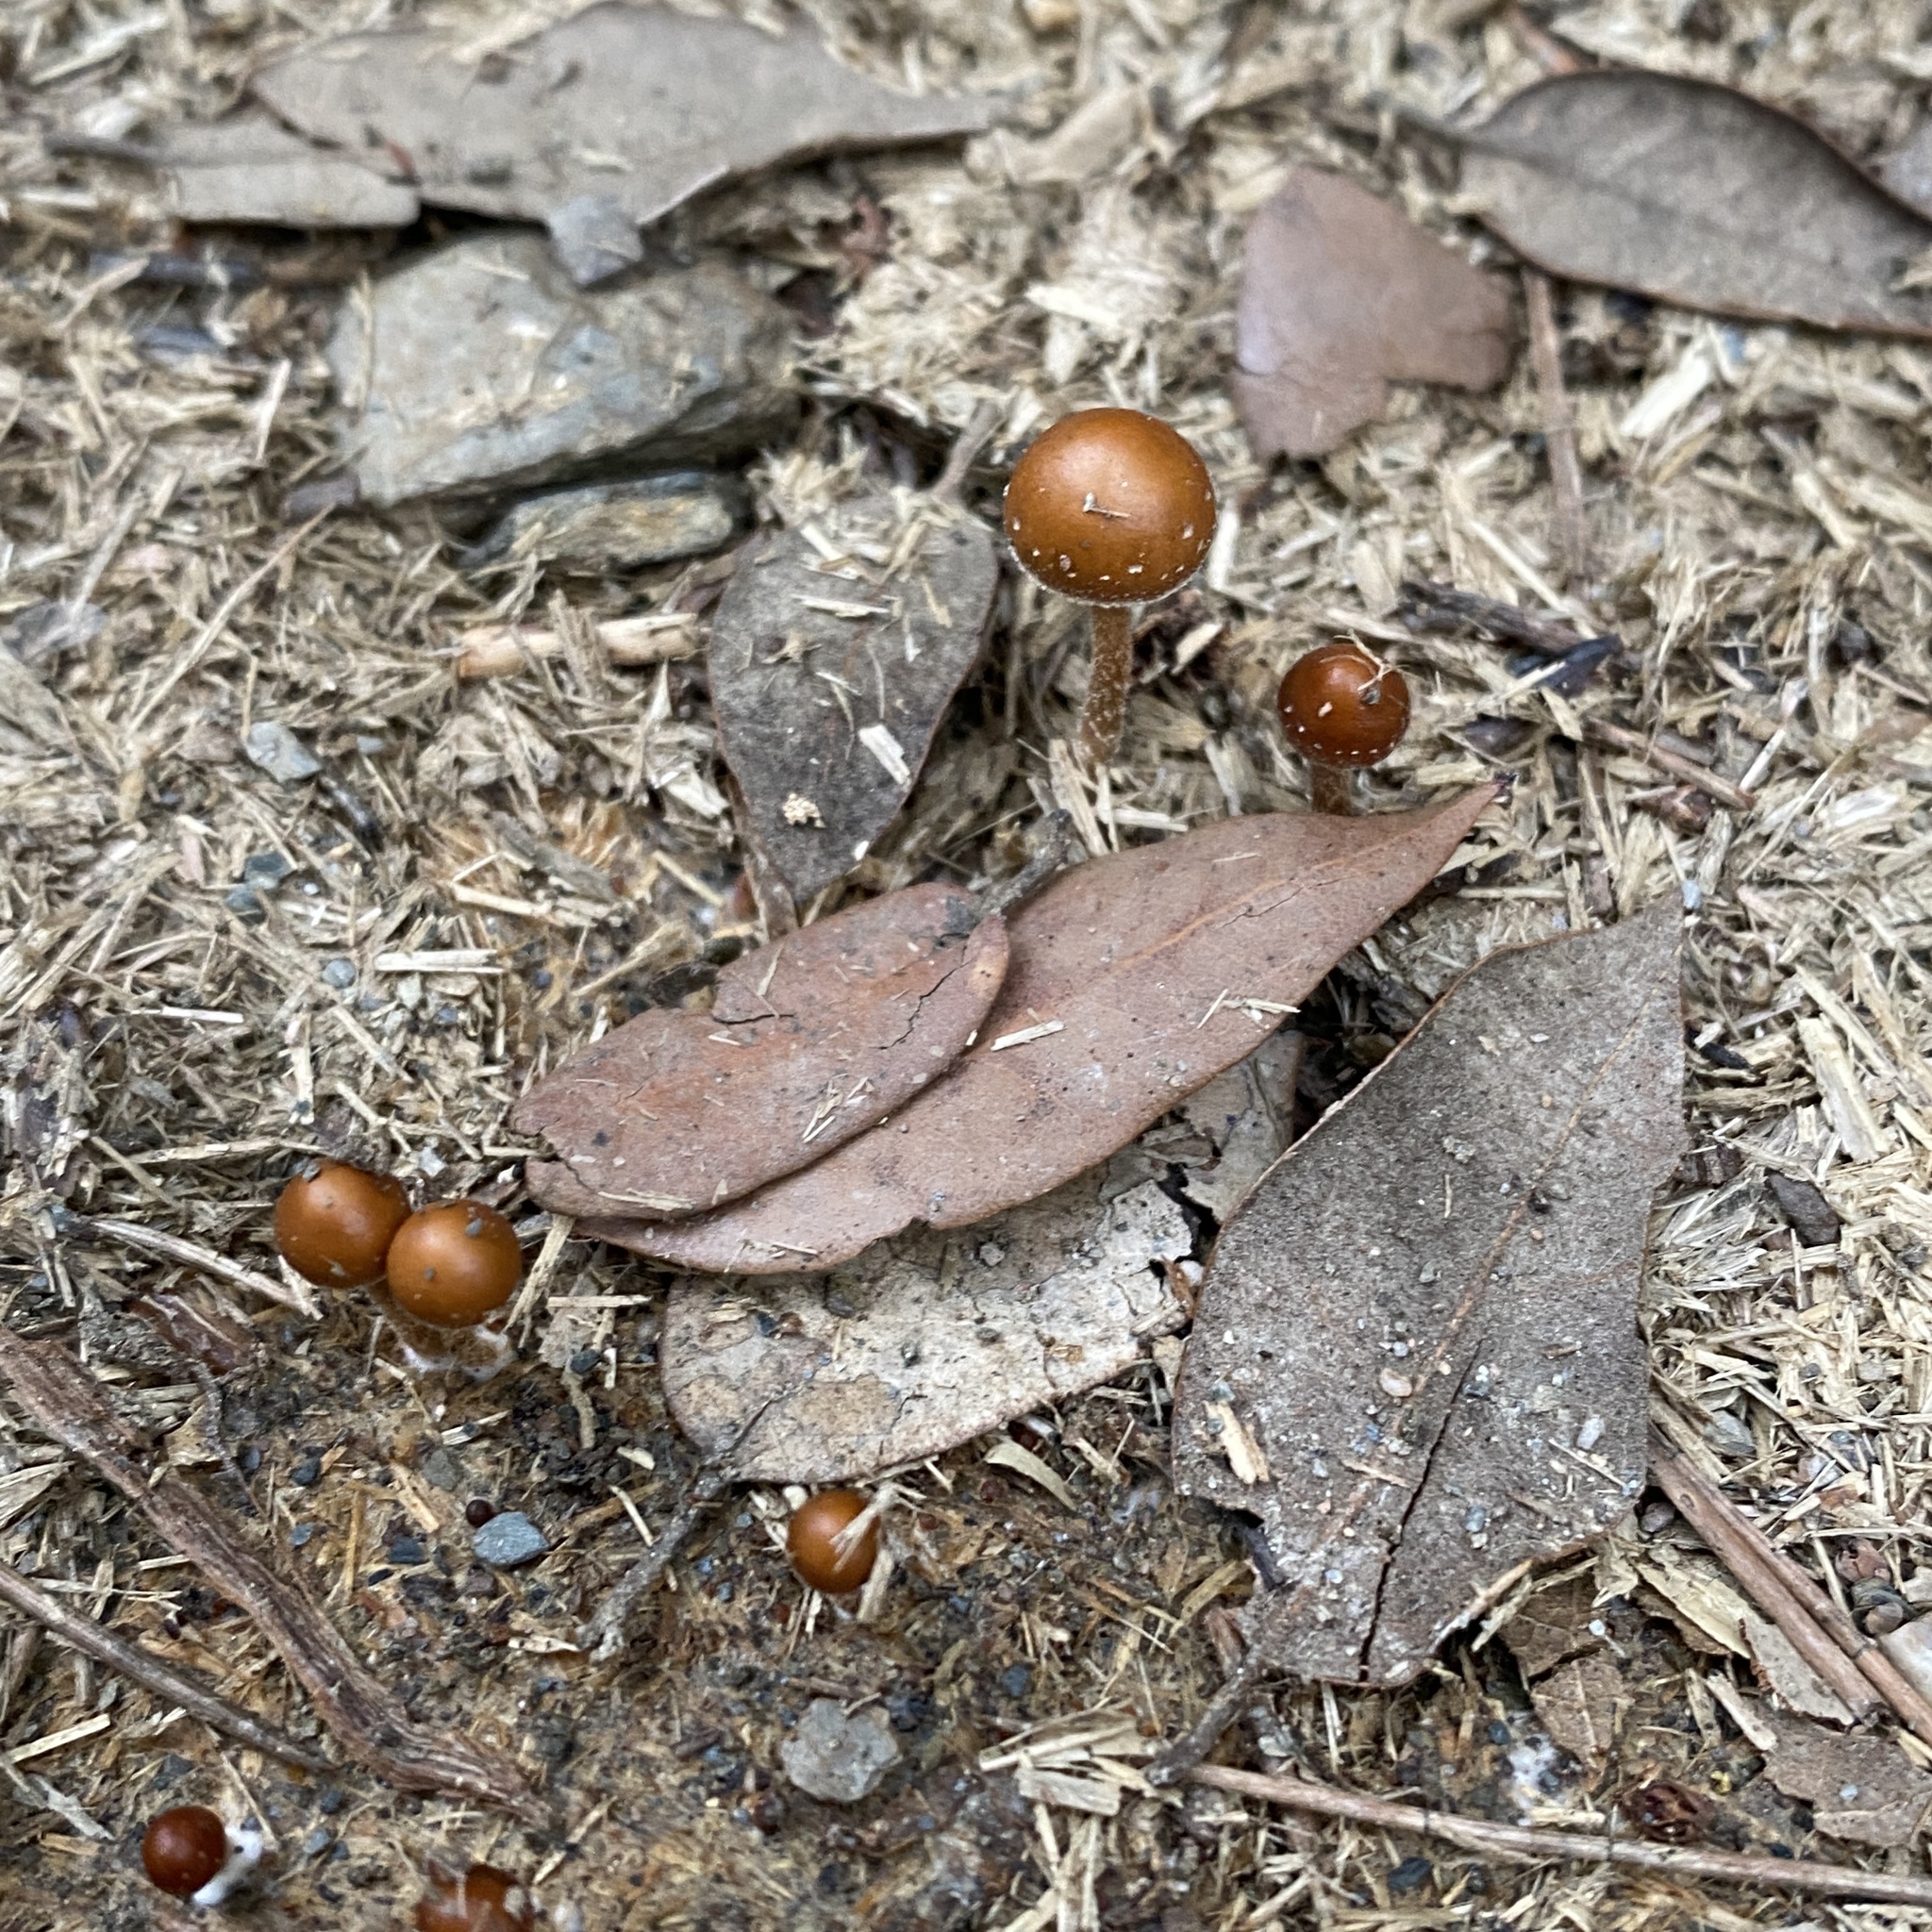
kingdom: Fungi
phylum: Basidiomycota
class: Agaricomycetes
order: Agaricales
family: Strophariaceae
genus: Deconica
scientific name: Deconica coprophila
